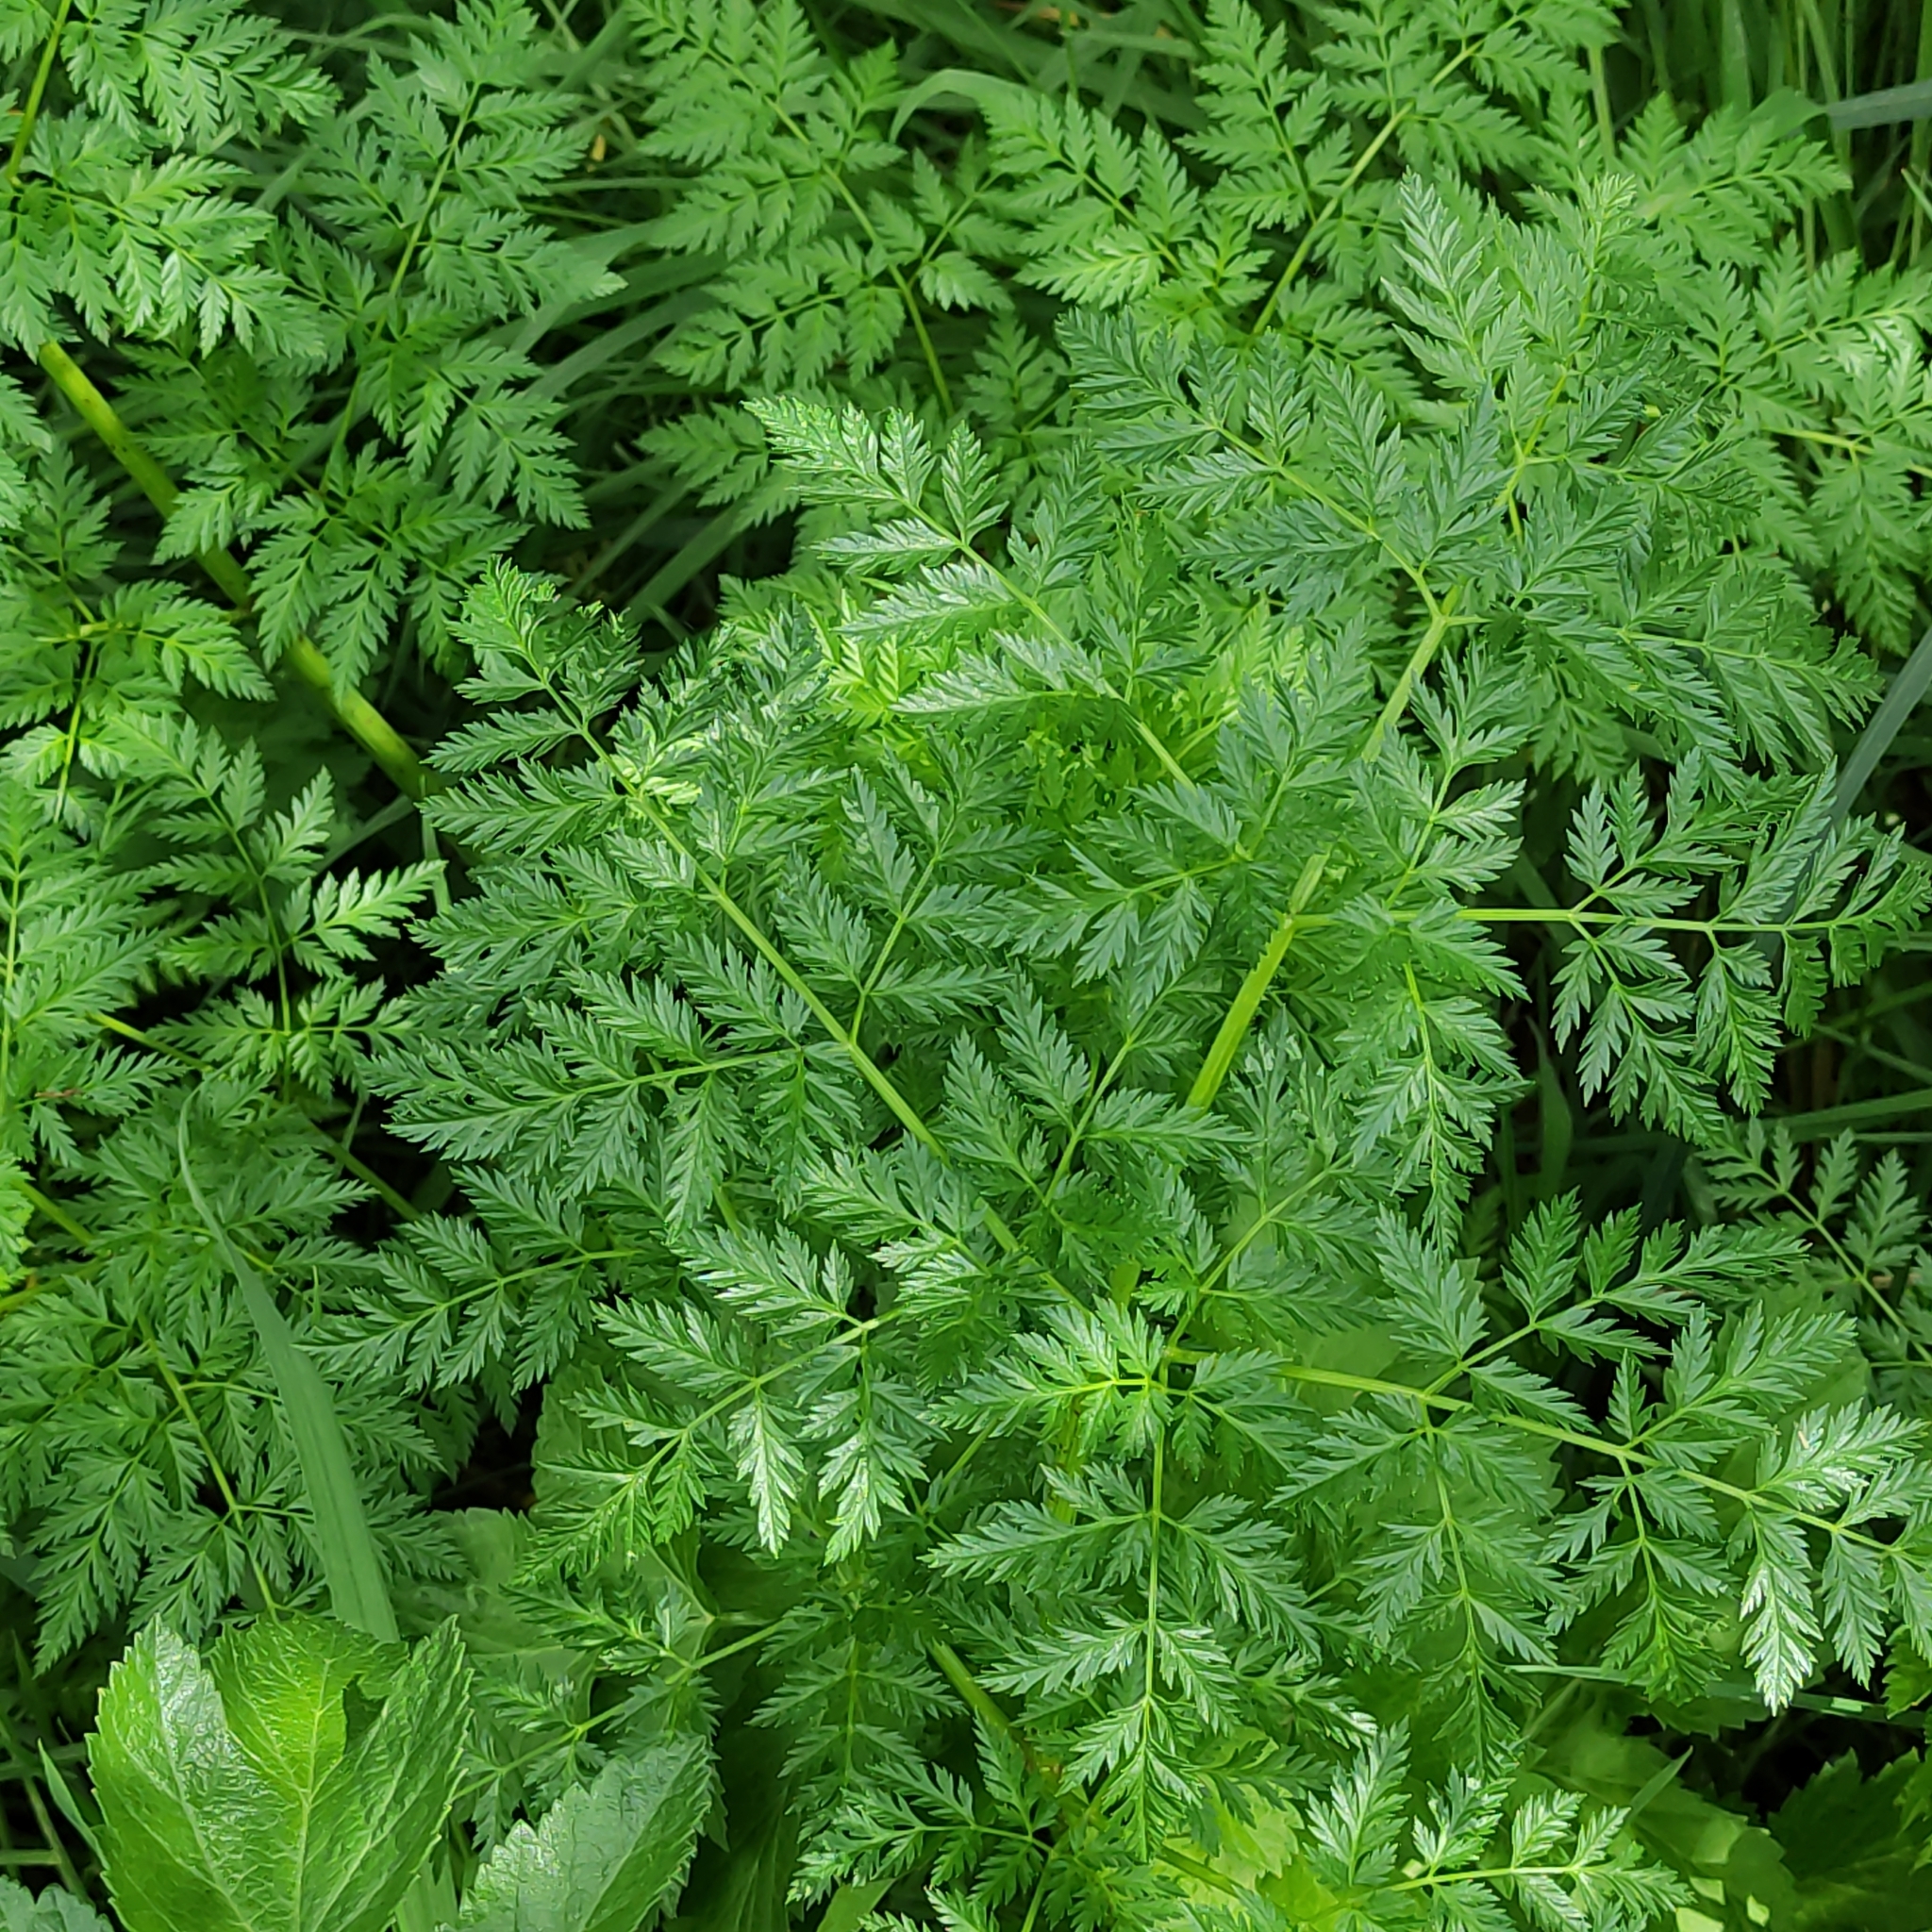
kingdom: Plantae
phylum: Tracheophyta
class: Magnoliopsida
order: Apiales
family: Apiaceae
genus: Conium
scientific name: Conium maculatum
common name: Hemlock
